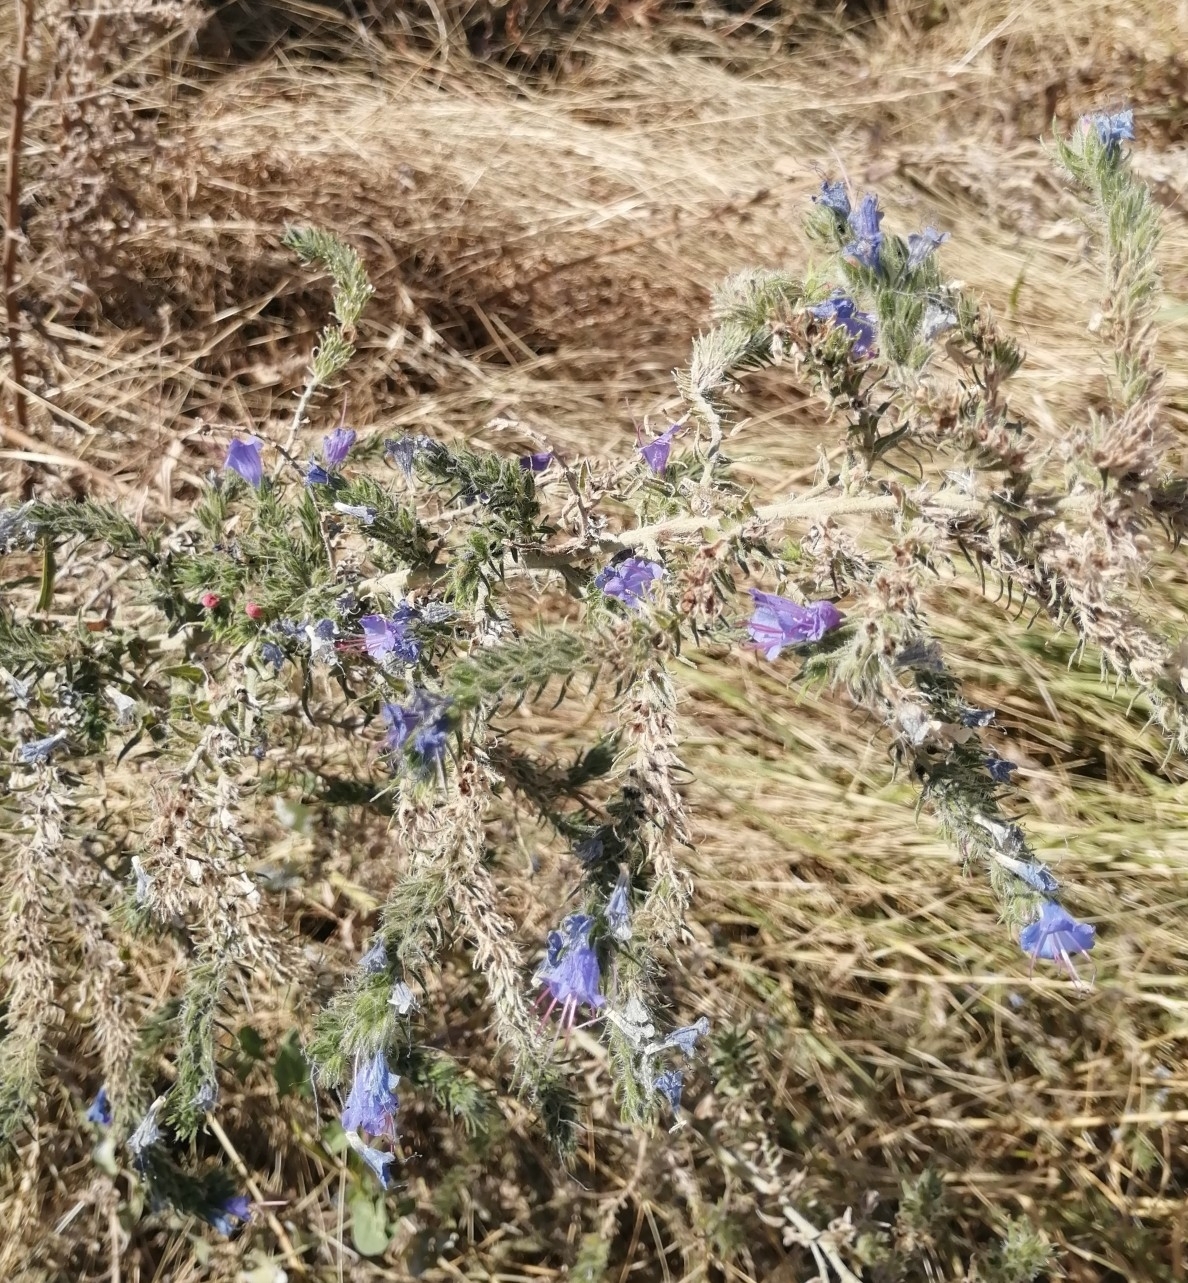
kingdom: Plantae
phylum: Tracheophyta
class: Magnoliopsida
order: Boraginales
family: Boraginaceae
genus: Echium
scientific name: Echium vulgare
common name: Common viper's bugloss
